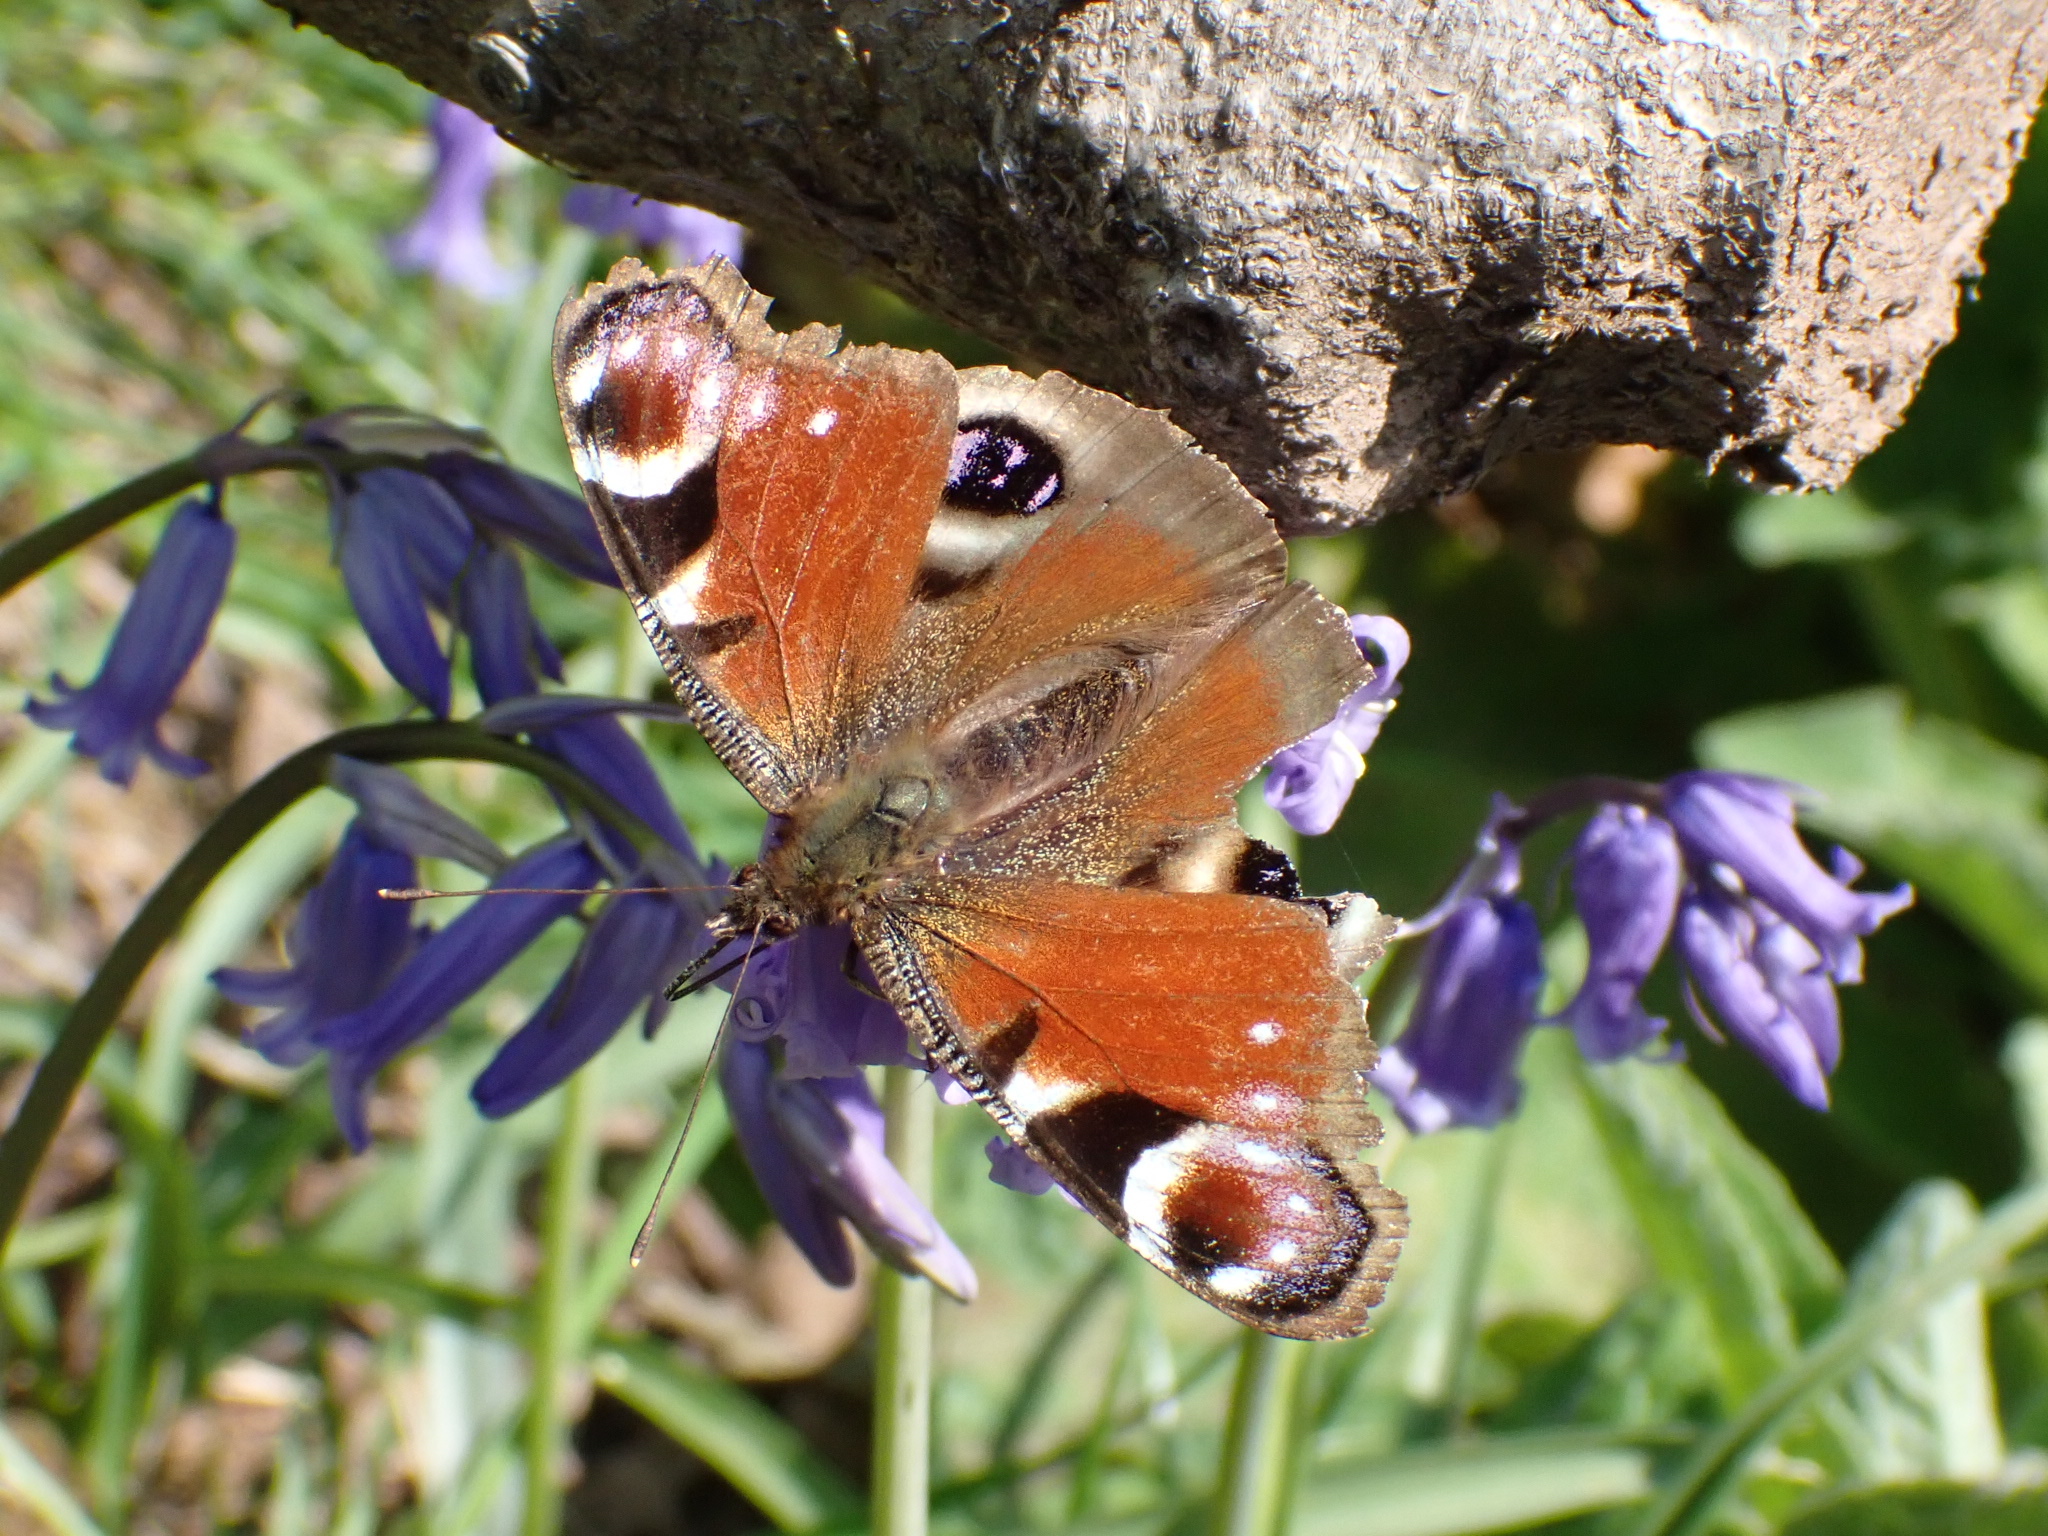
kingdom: Animalia
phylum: Arthropoda
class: Insecta
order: Lepidoptera
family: Nymphalidae
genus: Aglais
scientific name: Aglais io
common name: Peacock
